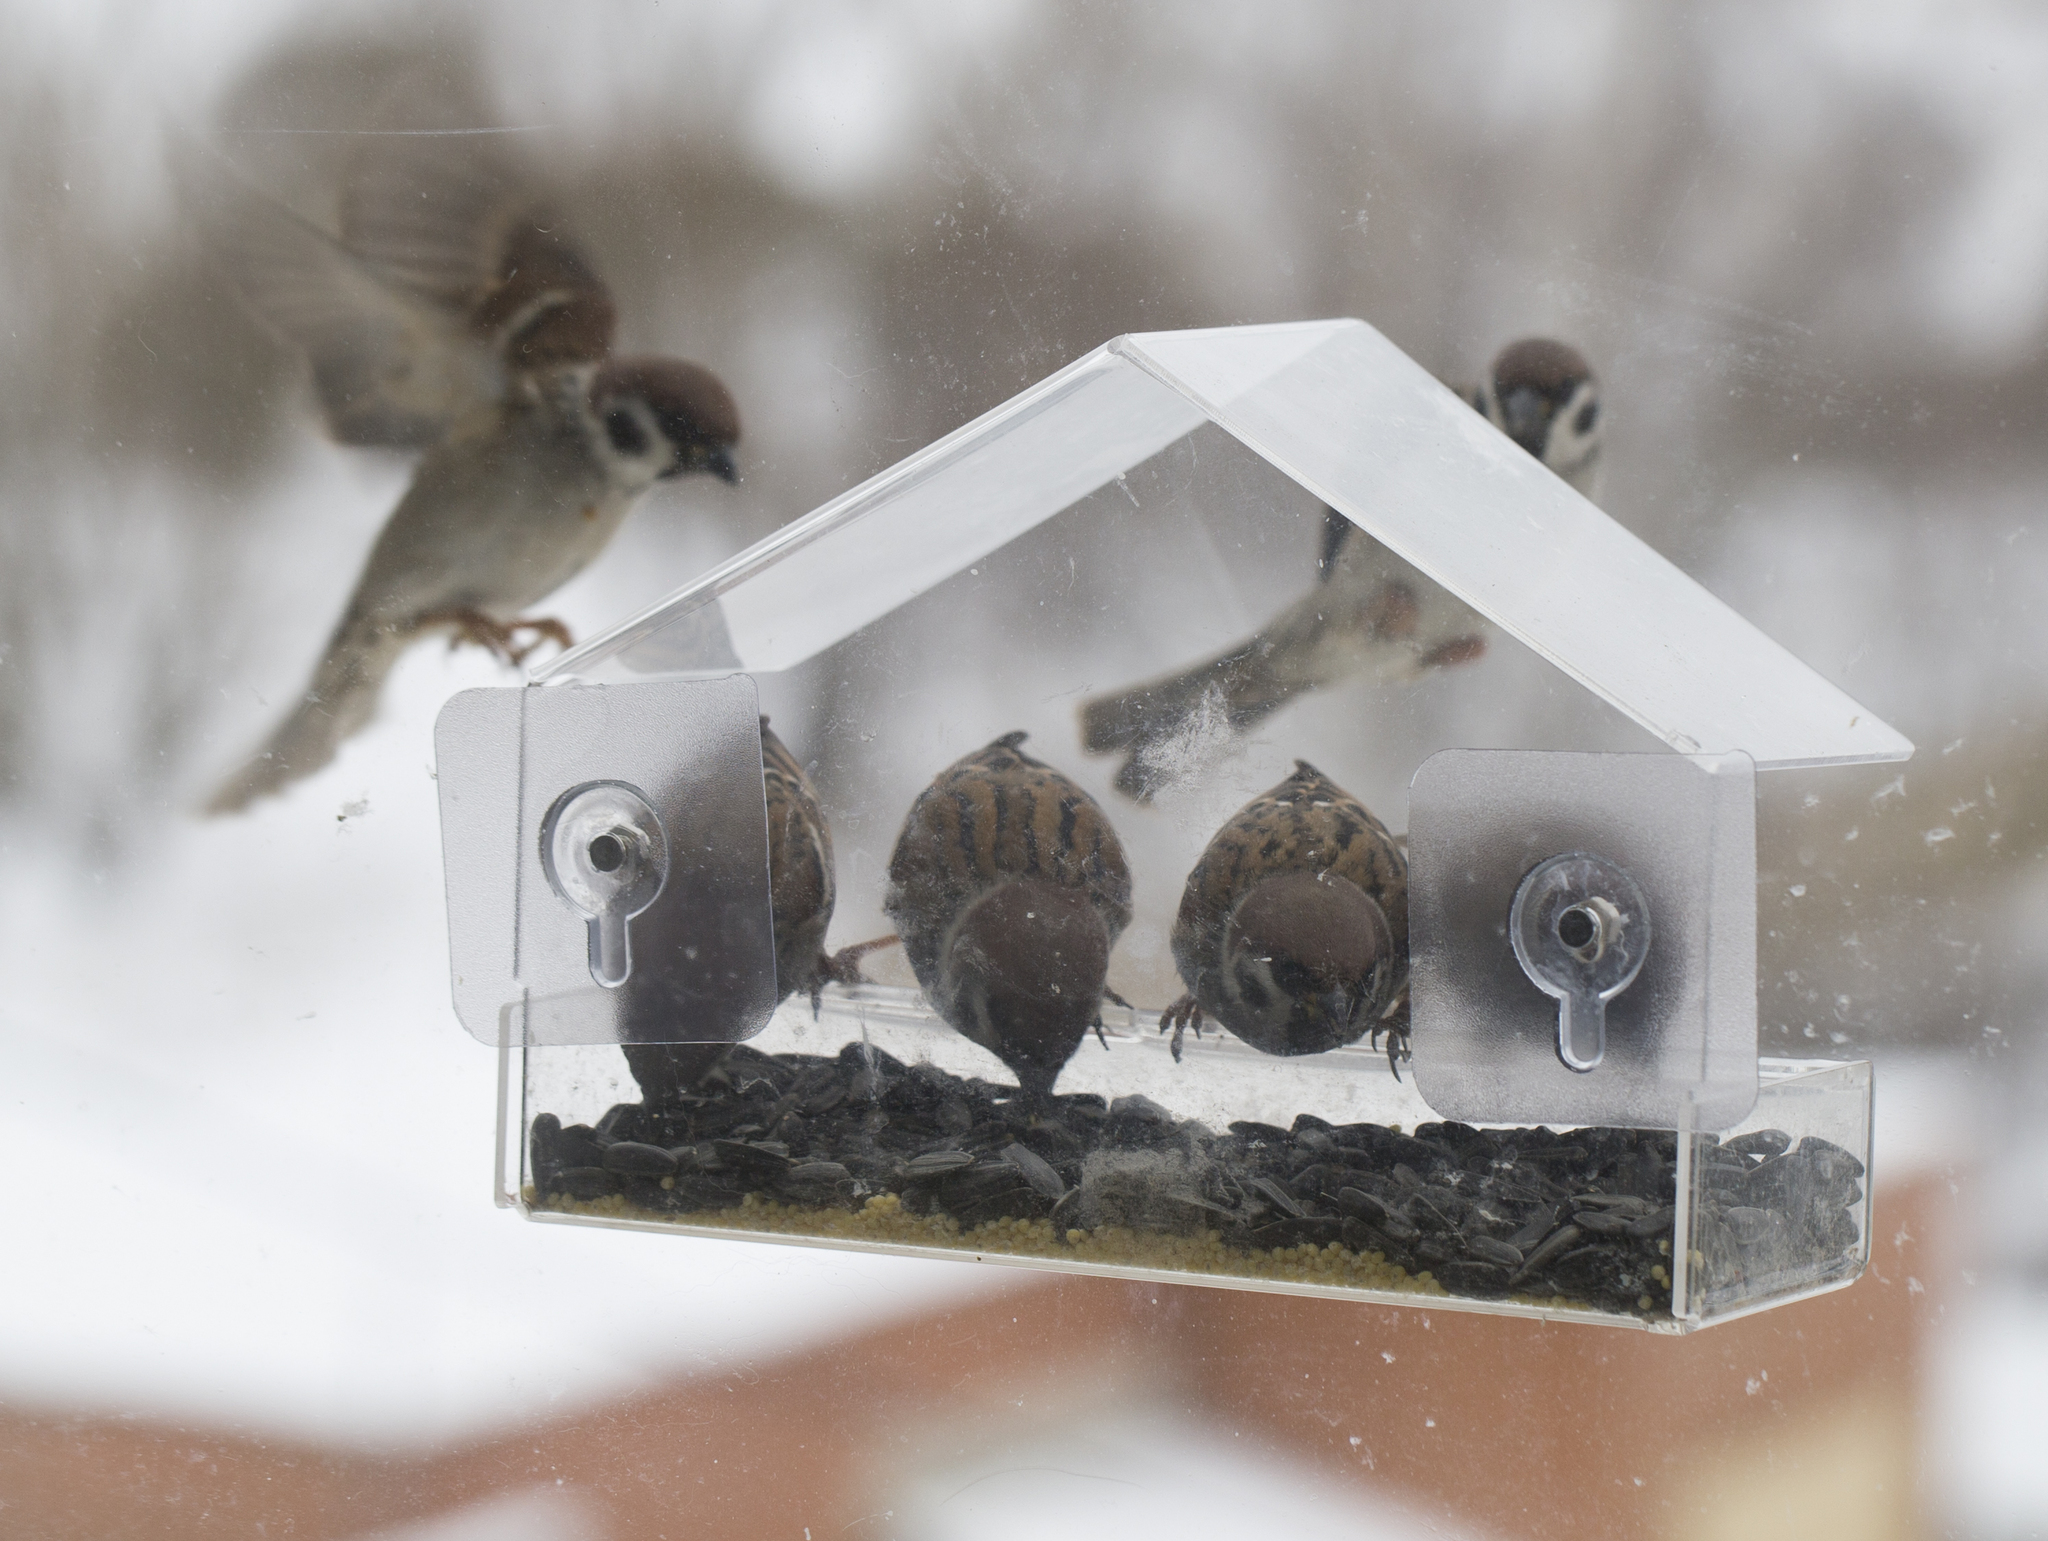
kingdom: Animalia
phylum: Chordata
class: Aves
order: Passeriformes
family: Passeridae
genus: Passer
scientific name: Passer montanus
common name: Eurasian tree sparrow
